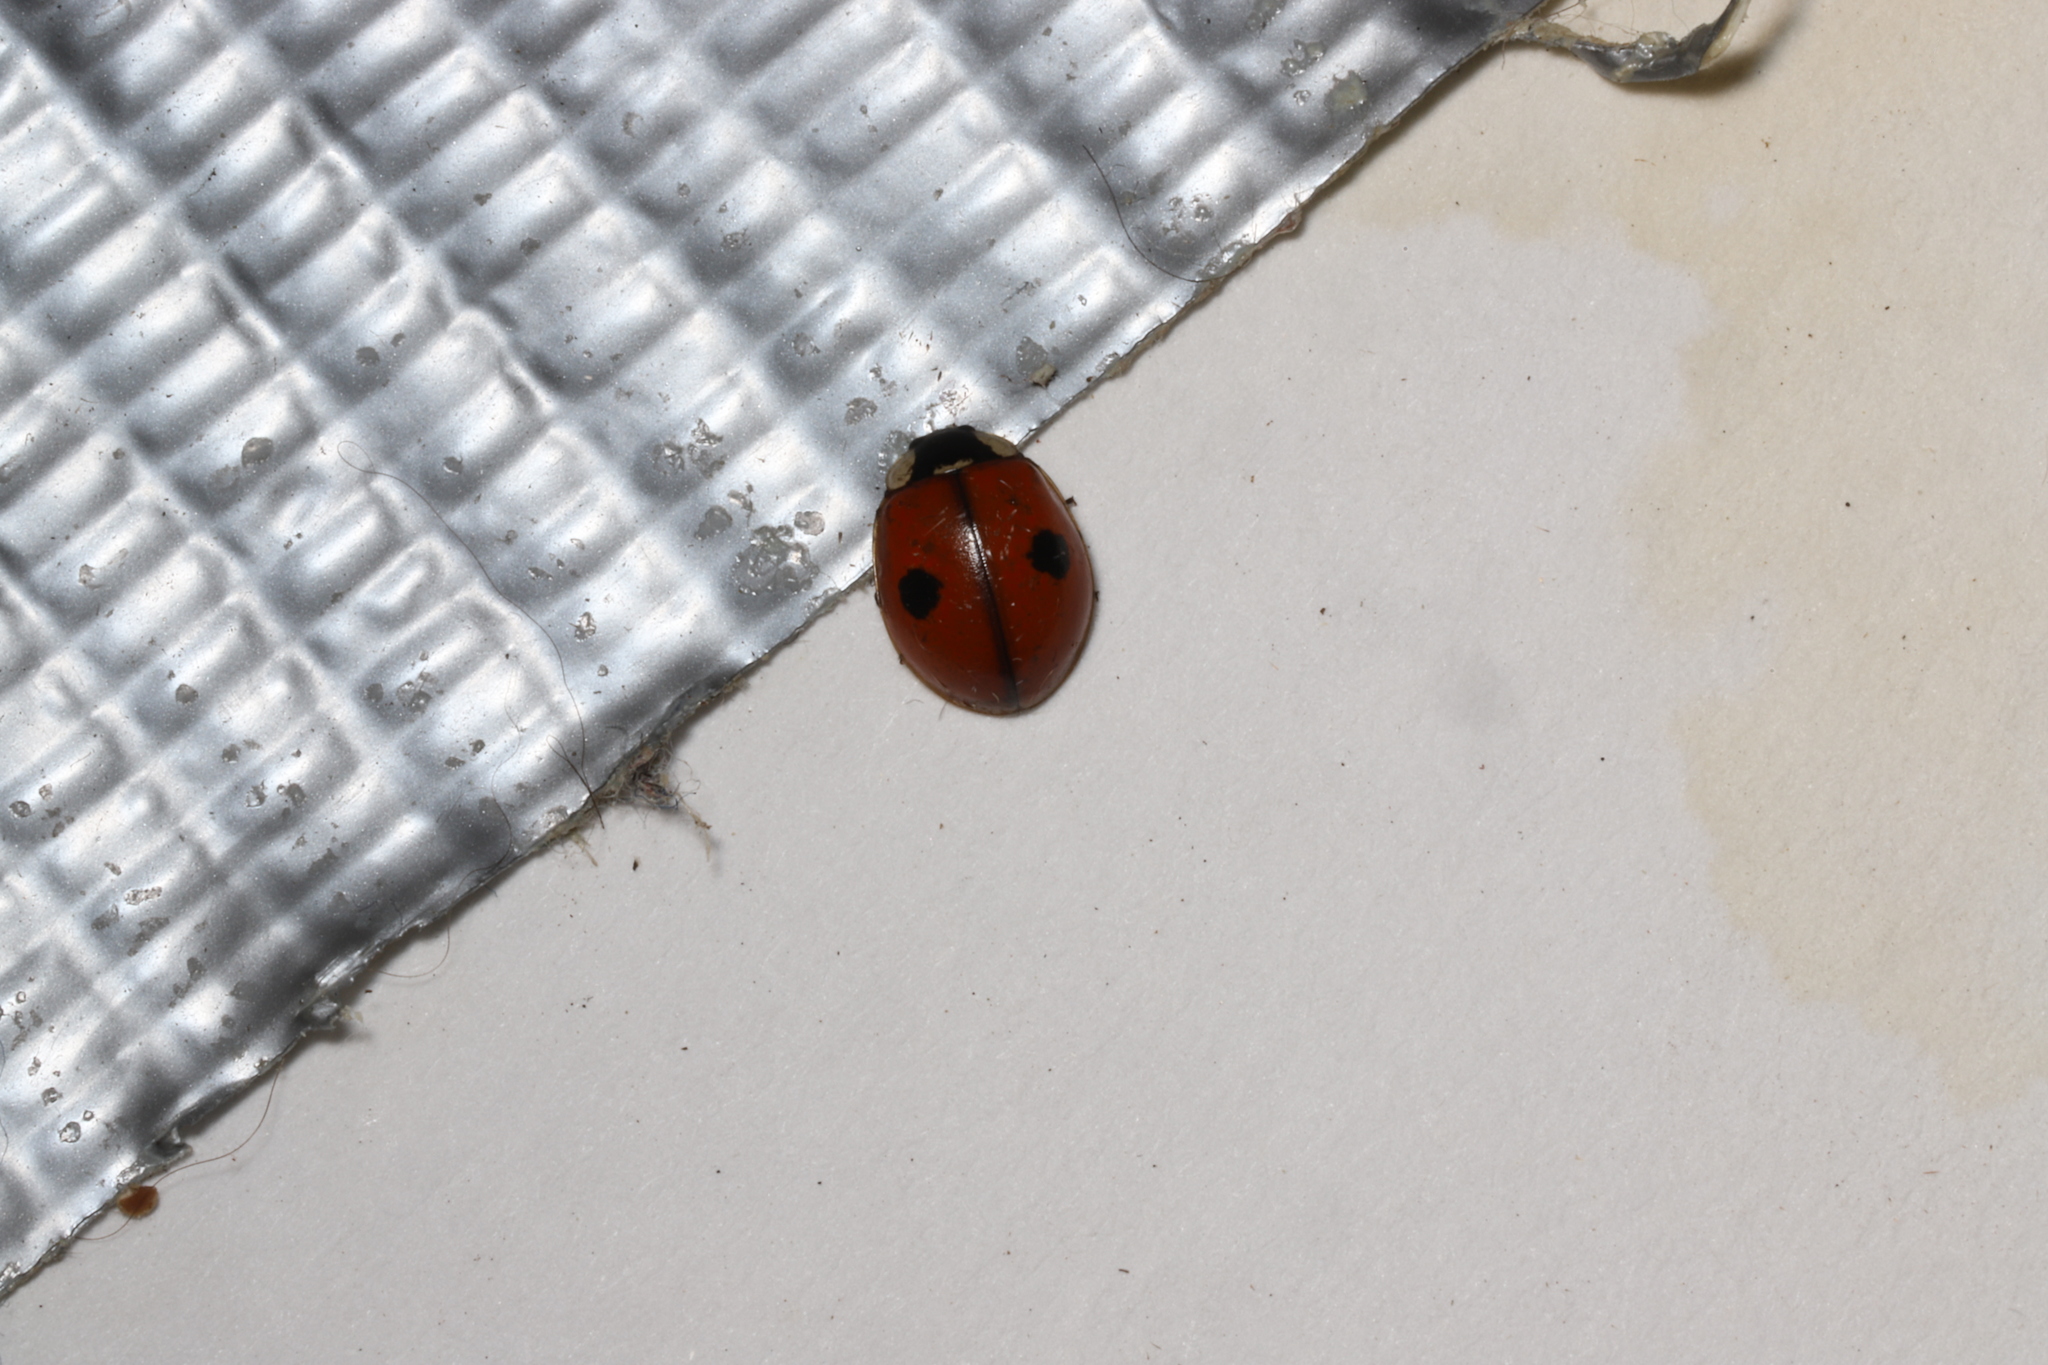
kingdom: Animalia
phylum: Arthropoda
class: Insecta
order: Coleoptera
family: Coccinellidae
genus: Adalia
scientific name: Adalia bipunctata
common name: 2-spot ladybird
